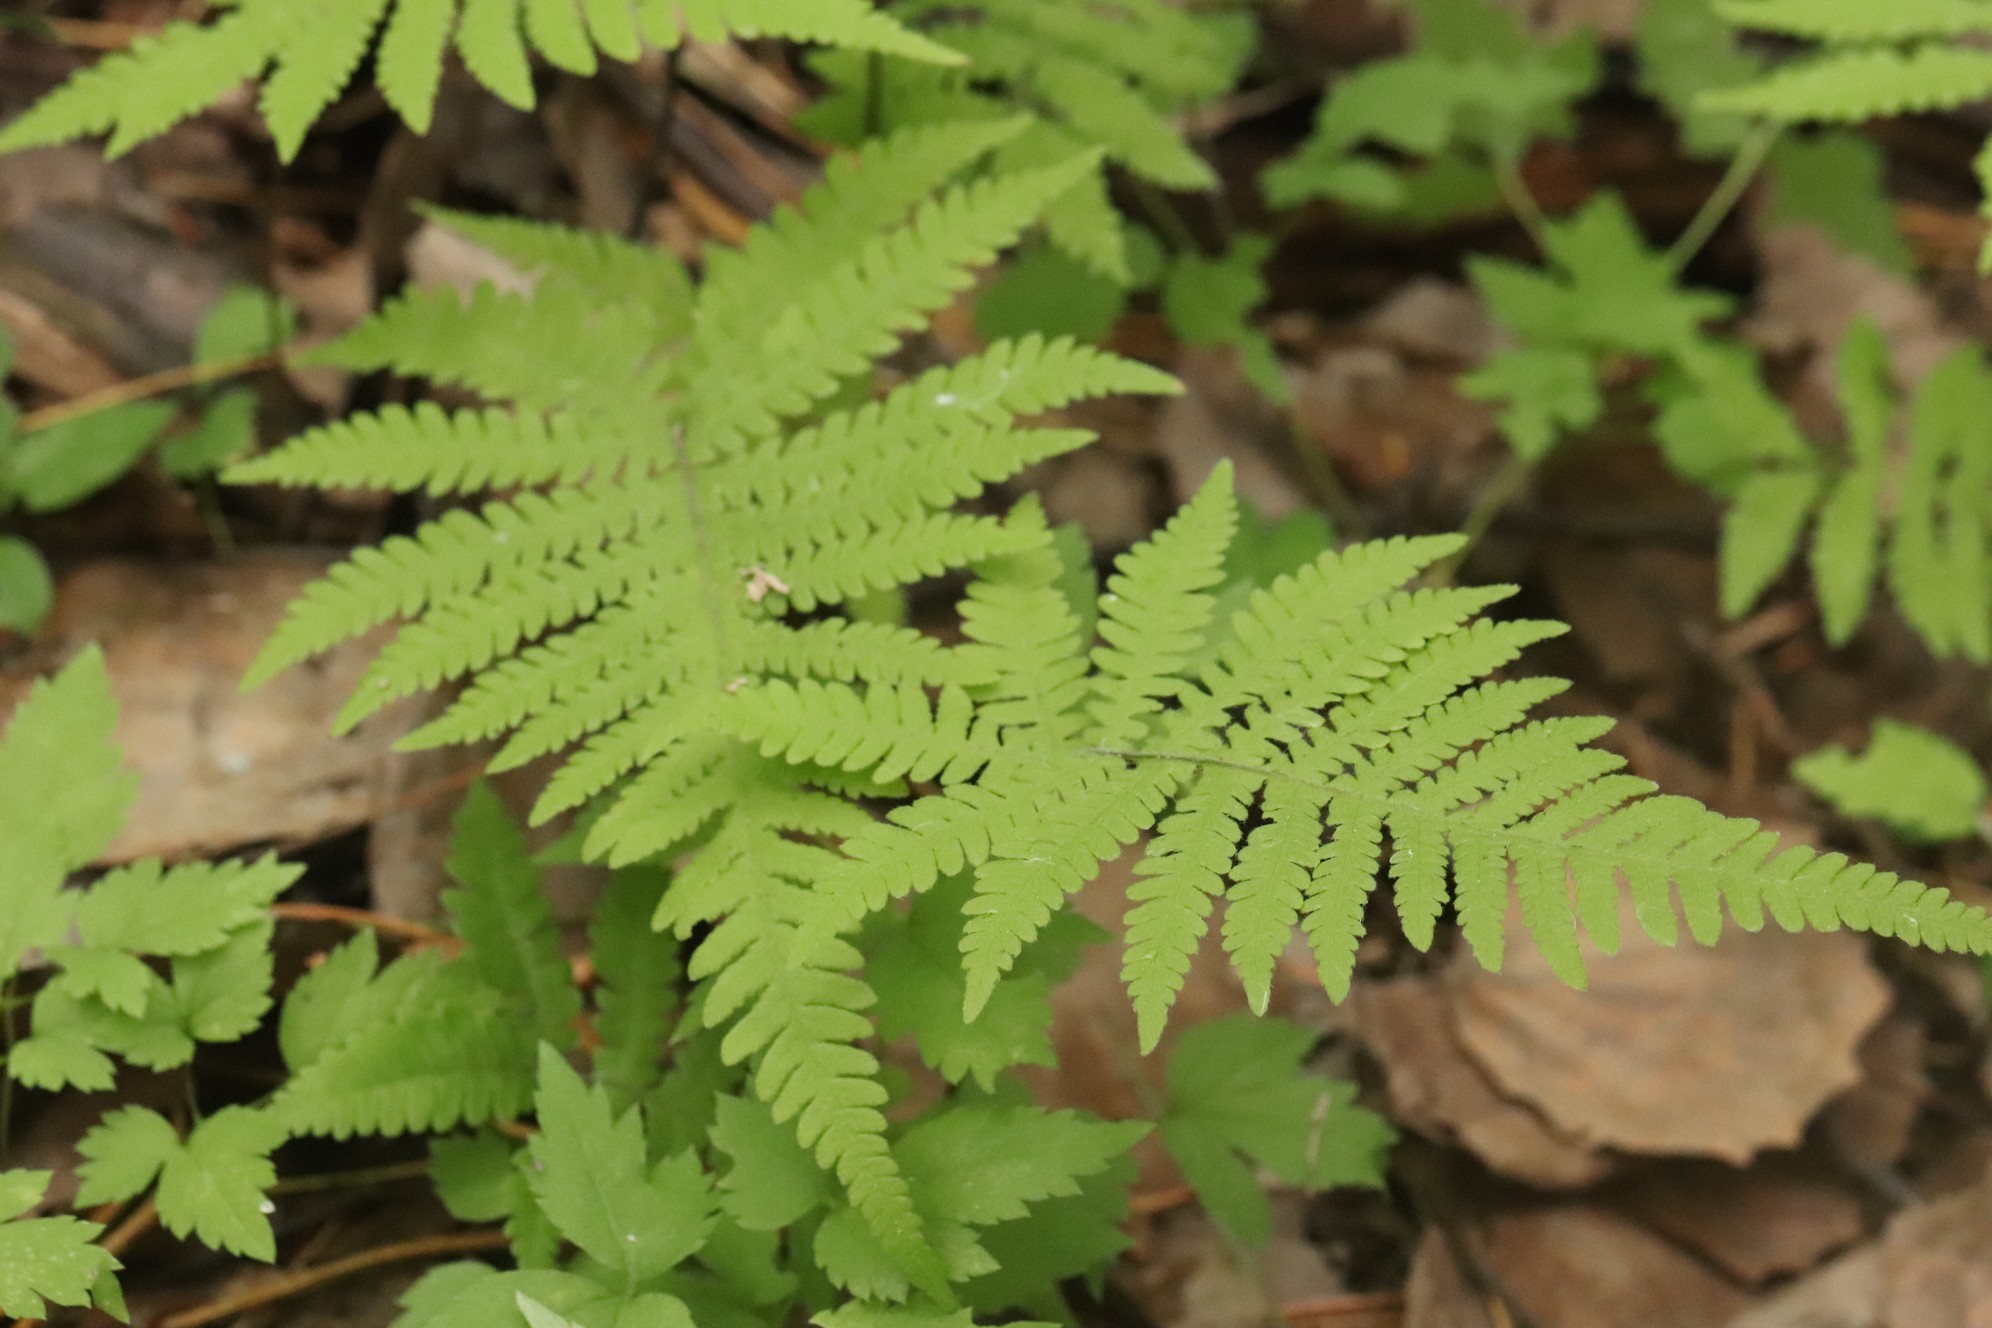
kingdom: Plantae
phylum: Tracheophyta
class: Polypodiopsida
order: Polypodiales
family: Thelypteridaceae
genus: Phegopteris
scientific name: Phegopteris connectilis
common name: Beech fern
